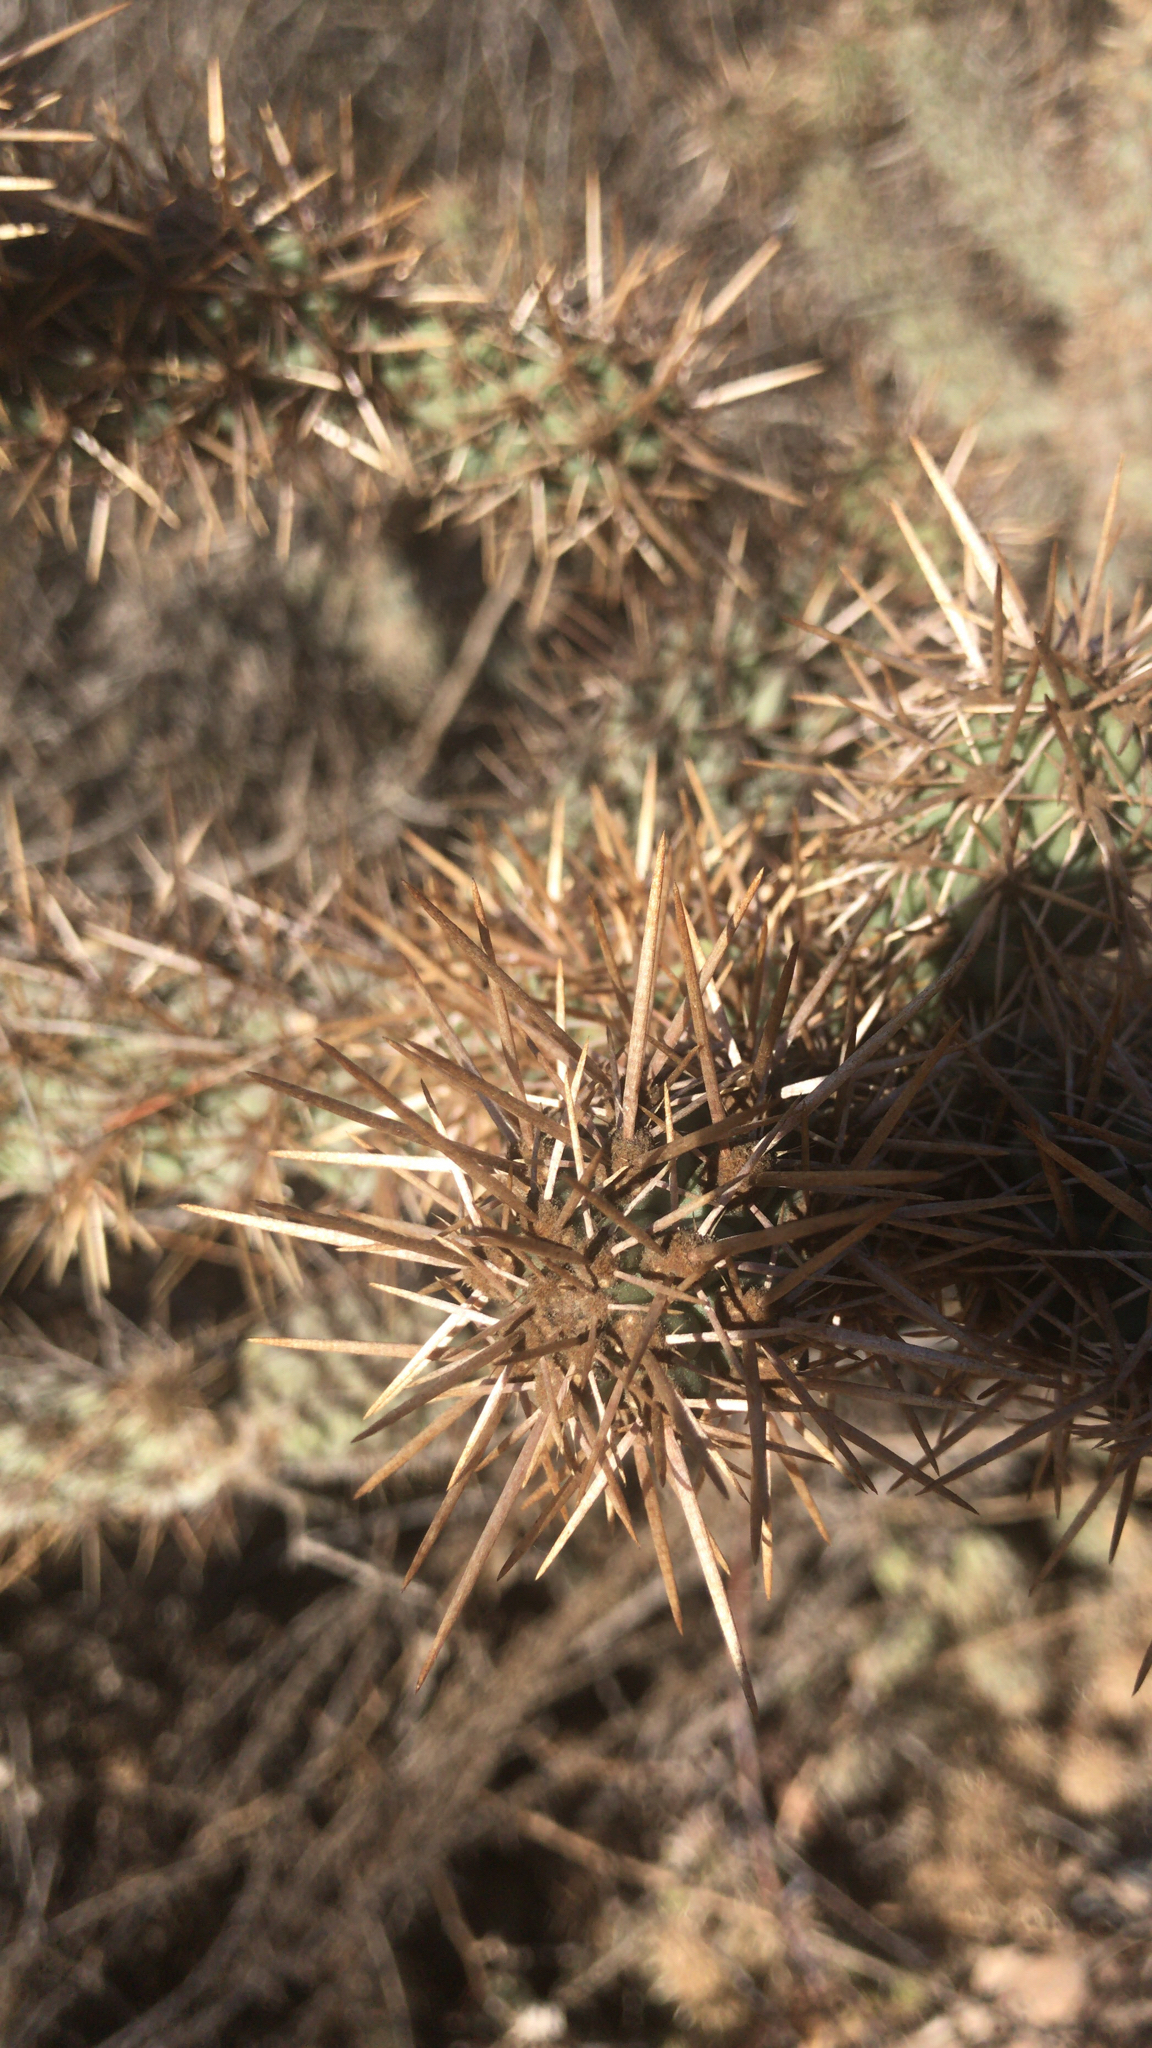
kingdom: Plantae
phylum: Tracheophyta
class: Magnoliopsida
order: Caryophyllales
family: Cactaceae
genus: Cylindropuntia
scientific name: Cylindropuntia prolifera
